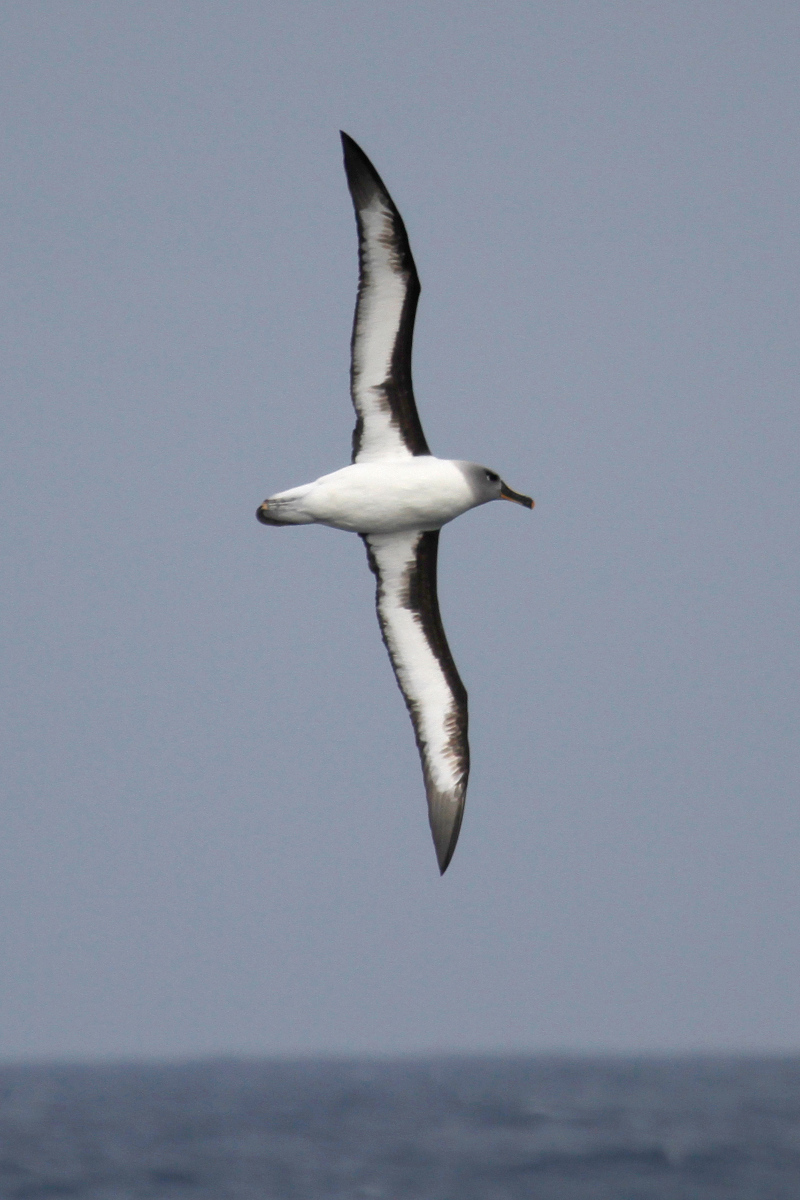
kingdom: Animalia
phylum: Chordata
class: Aves
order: Procellariiformes
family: Diomedeidae
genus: Thalassarche
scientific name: Thalassarche chrysostoma
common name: Grey-headed albatross
